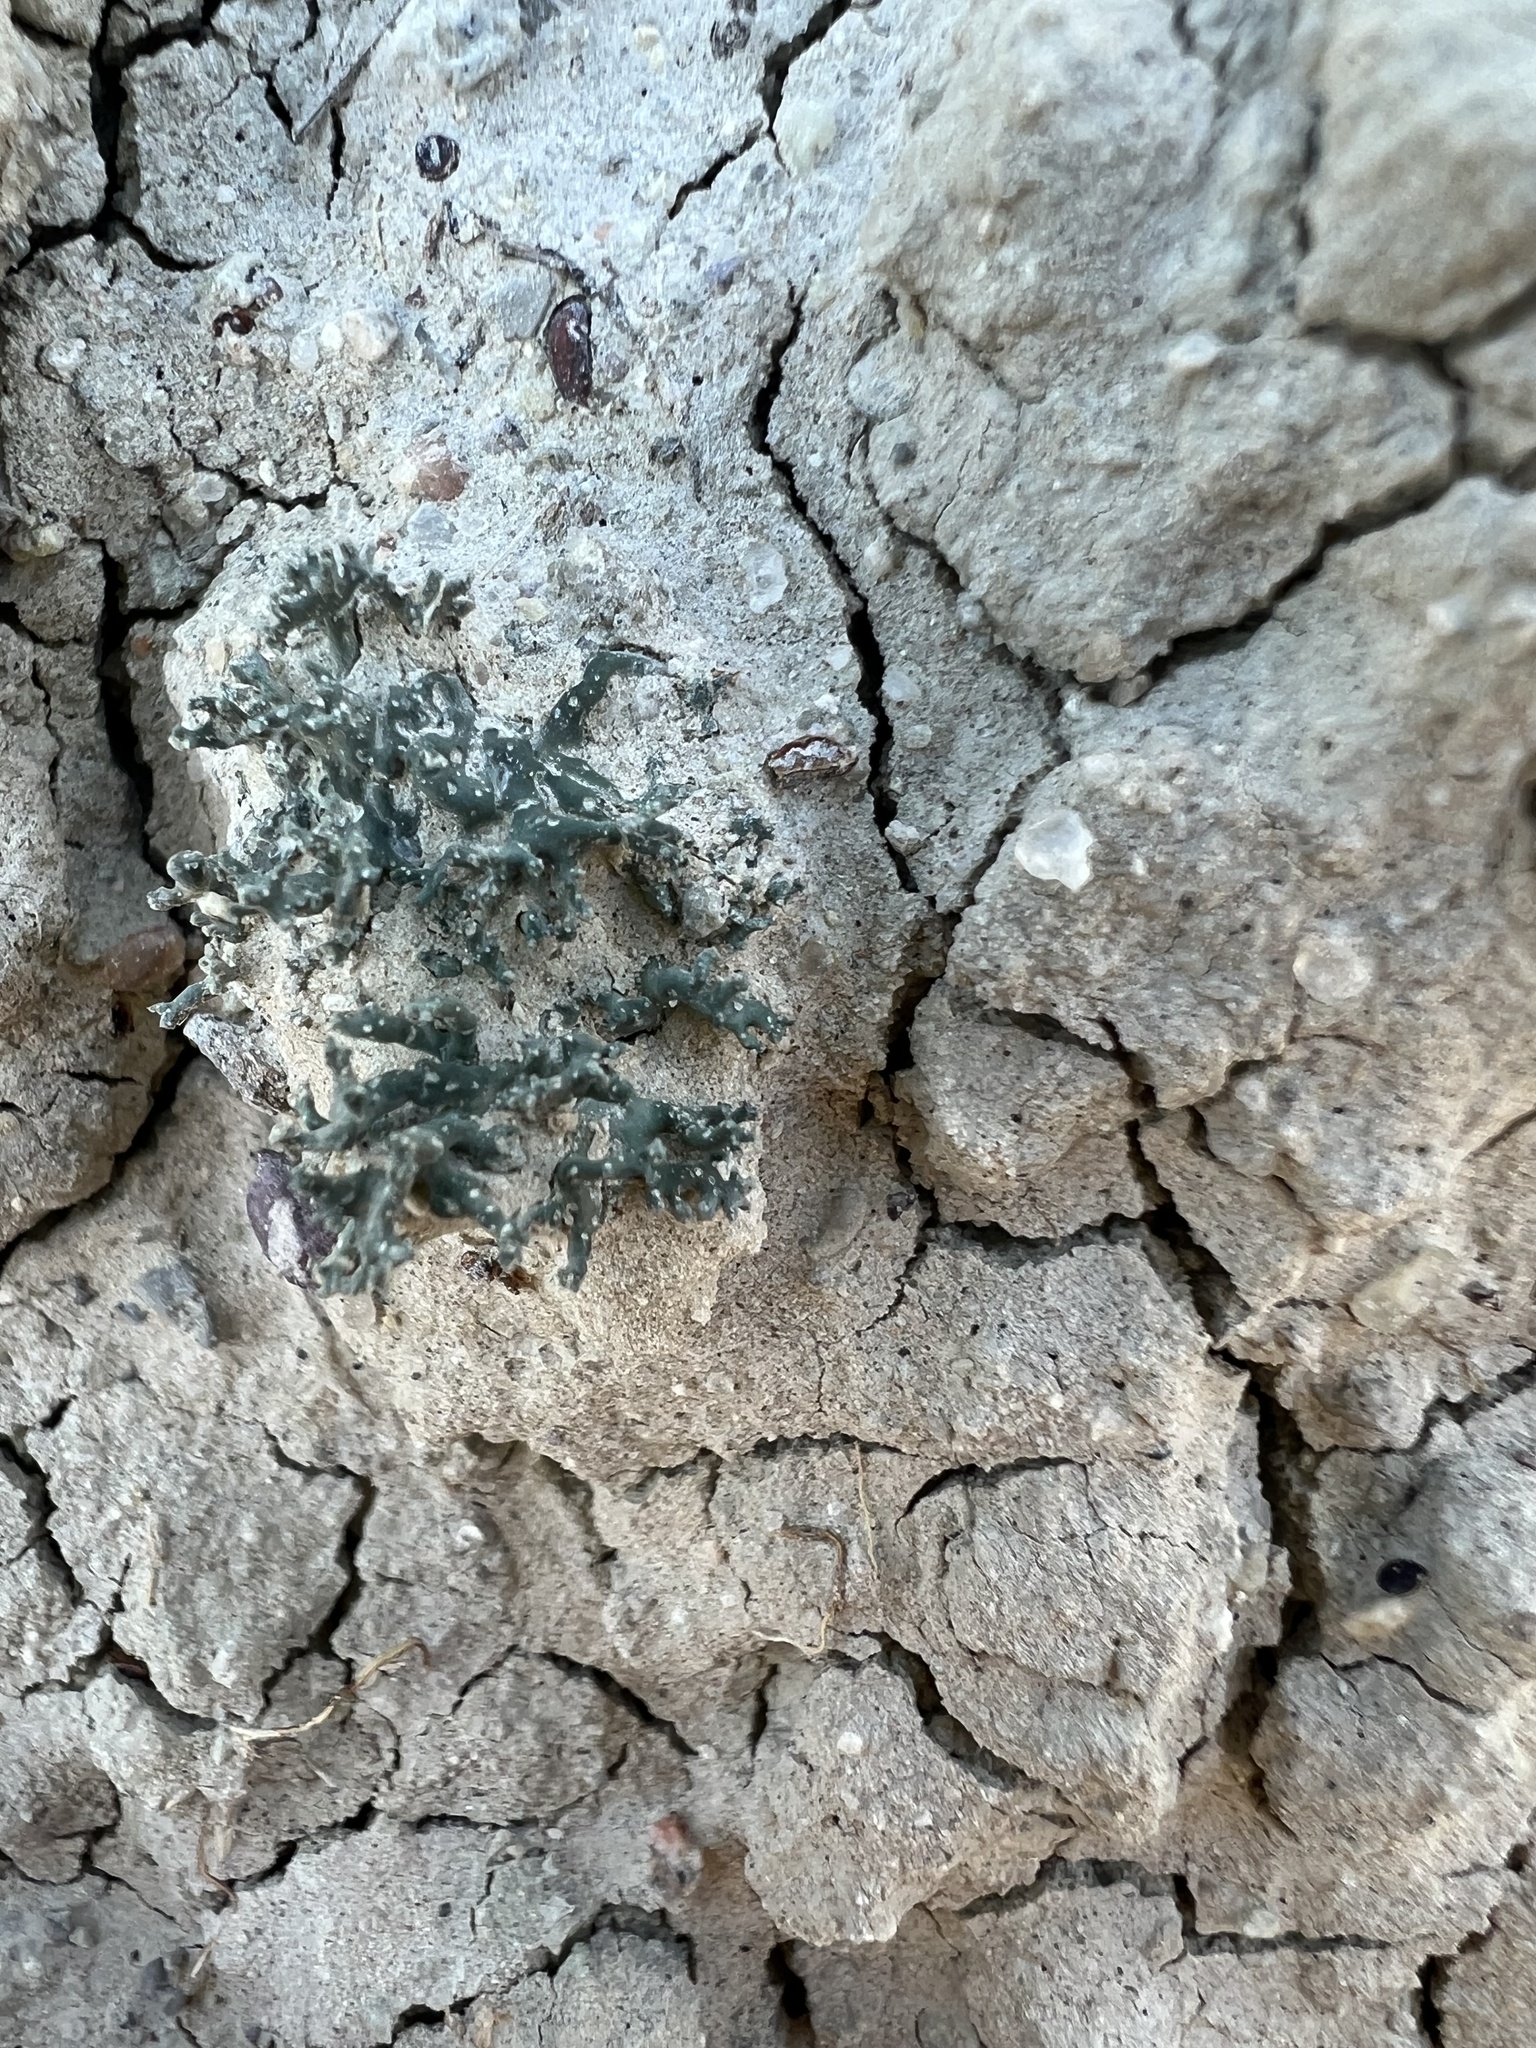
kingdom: Fungi
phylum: Ascomycota
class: Lecanoromycetes
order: Pertusariales
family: Megasporaceae
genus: Circinaria
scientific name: Circinaria hispida
